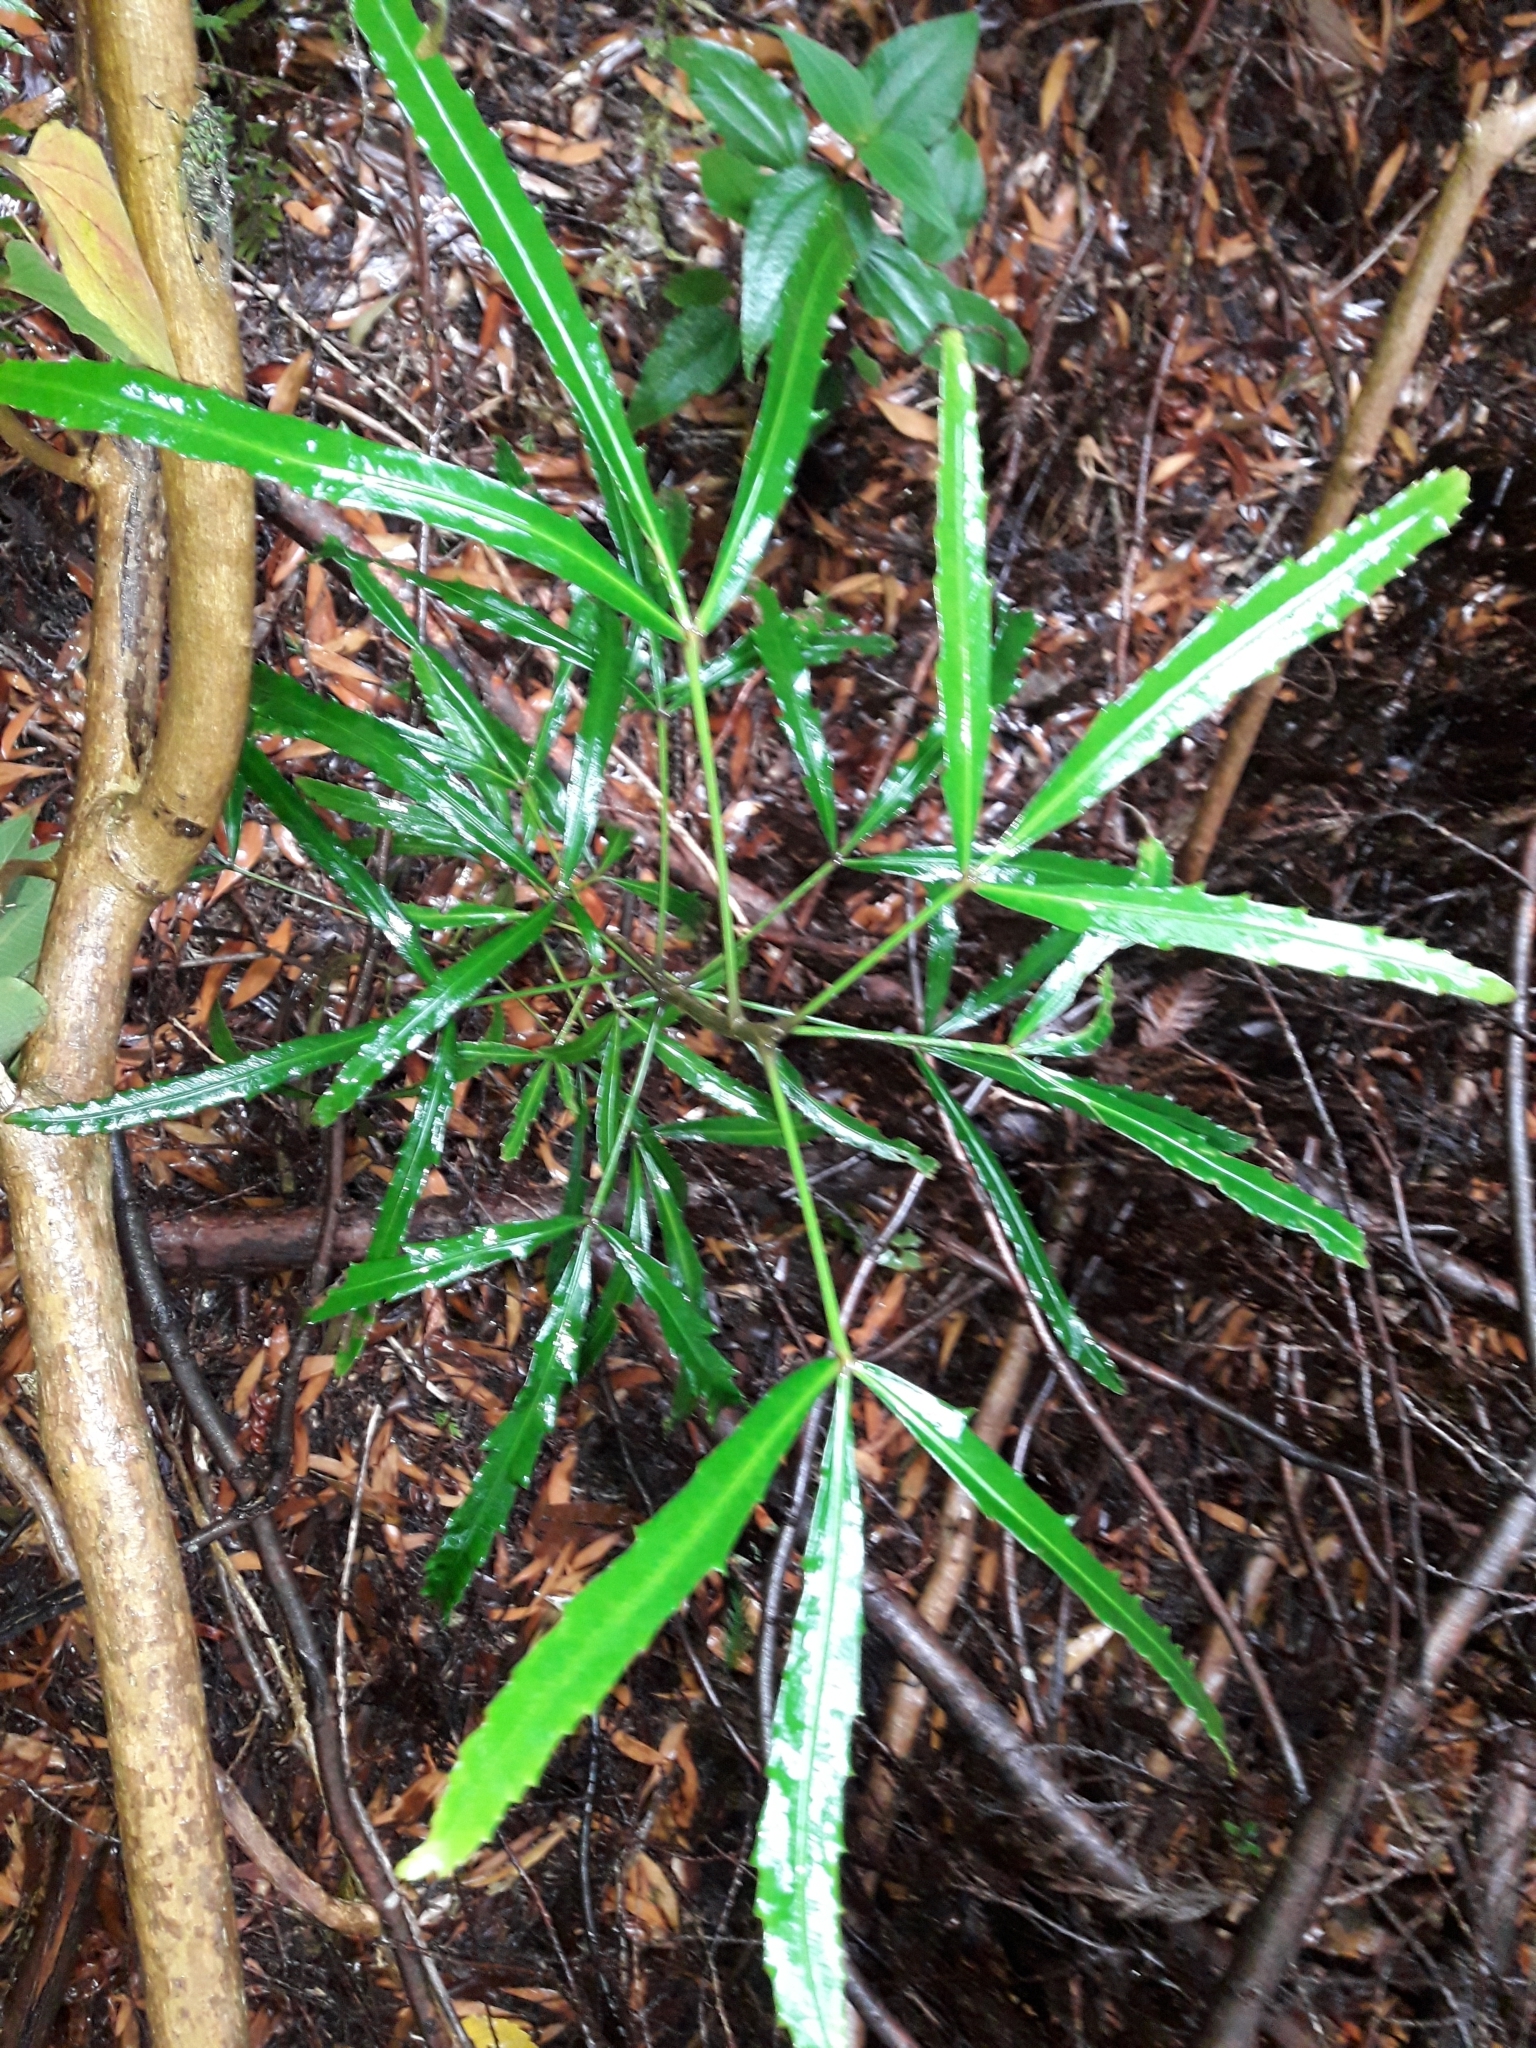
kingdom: Plantae
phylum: Tracheophyta
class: Magnoliopsida
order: Apiales
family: Araliaceae
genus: Pseudopanax
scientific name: Pseudopanax
